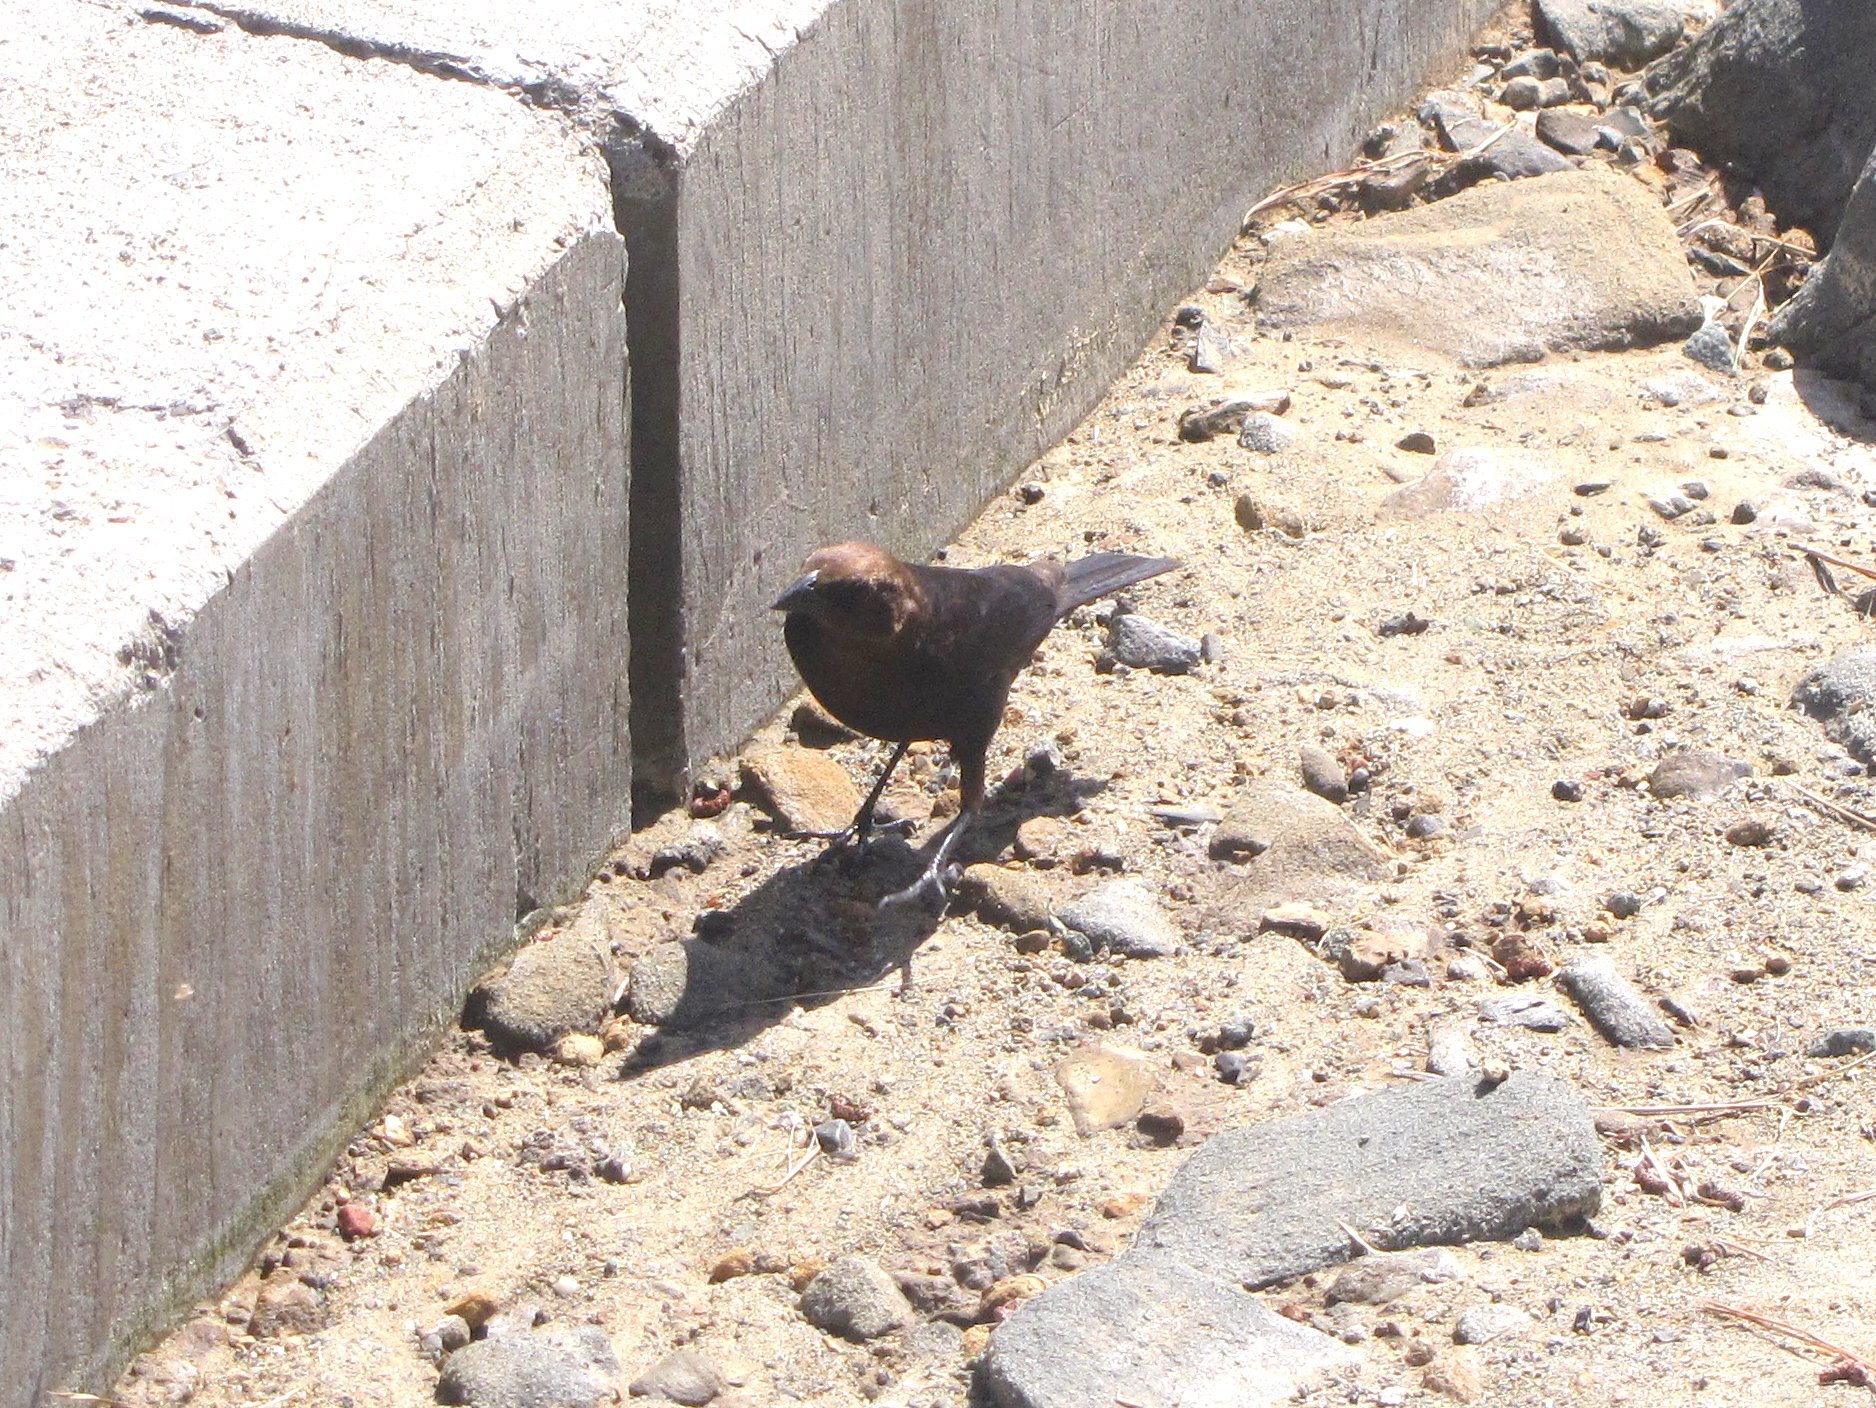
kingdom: Animalia
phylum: Chordata
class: Aves
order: Passeriformes
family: Icteridae
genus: Molothrus
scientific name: Molothrus ater
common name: Brown-headed cowbird
